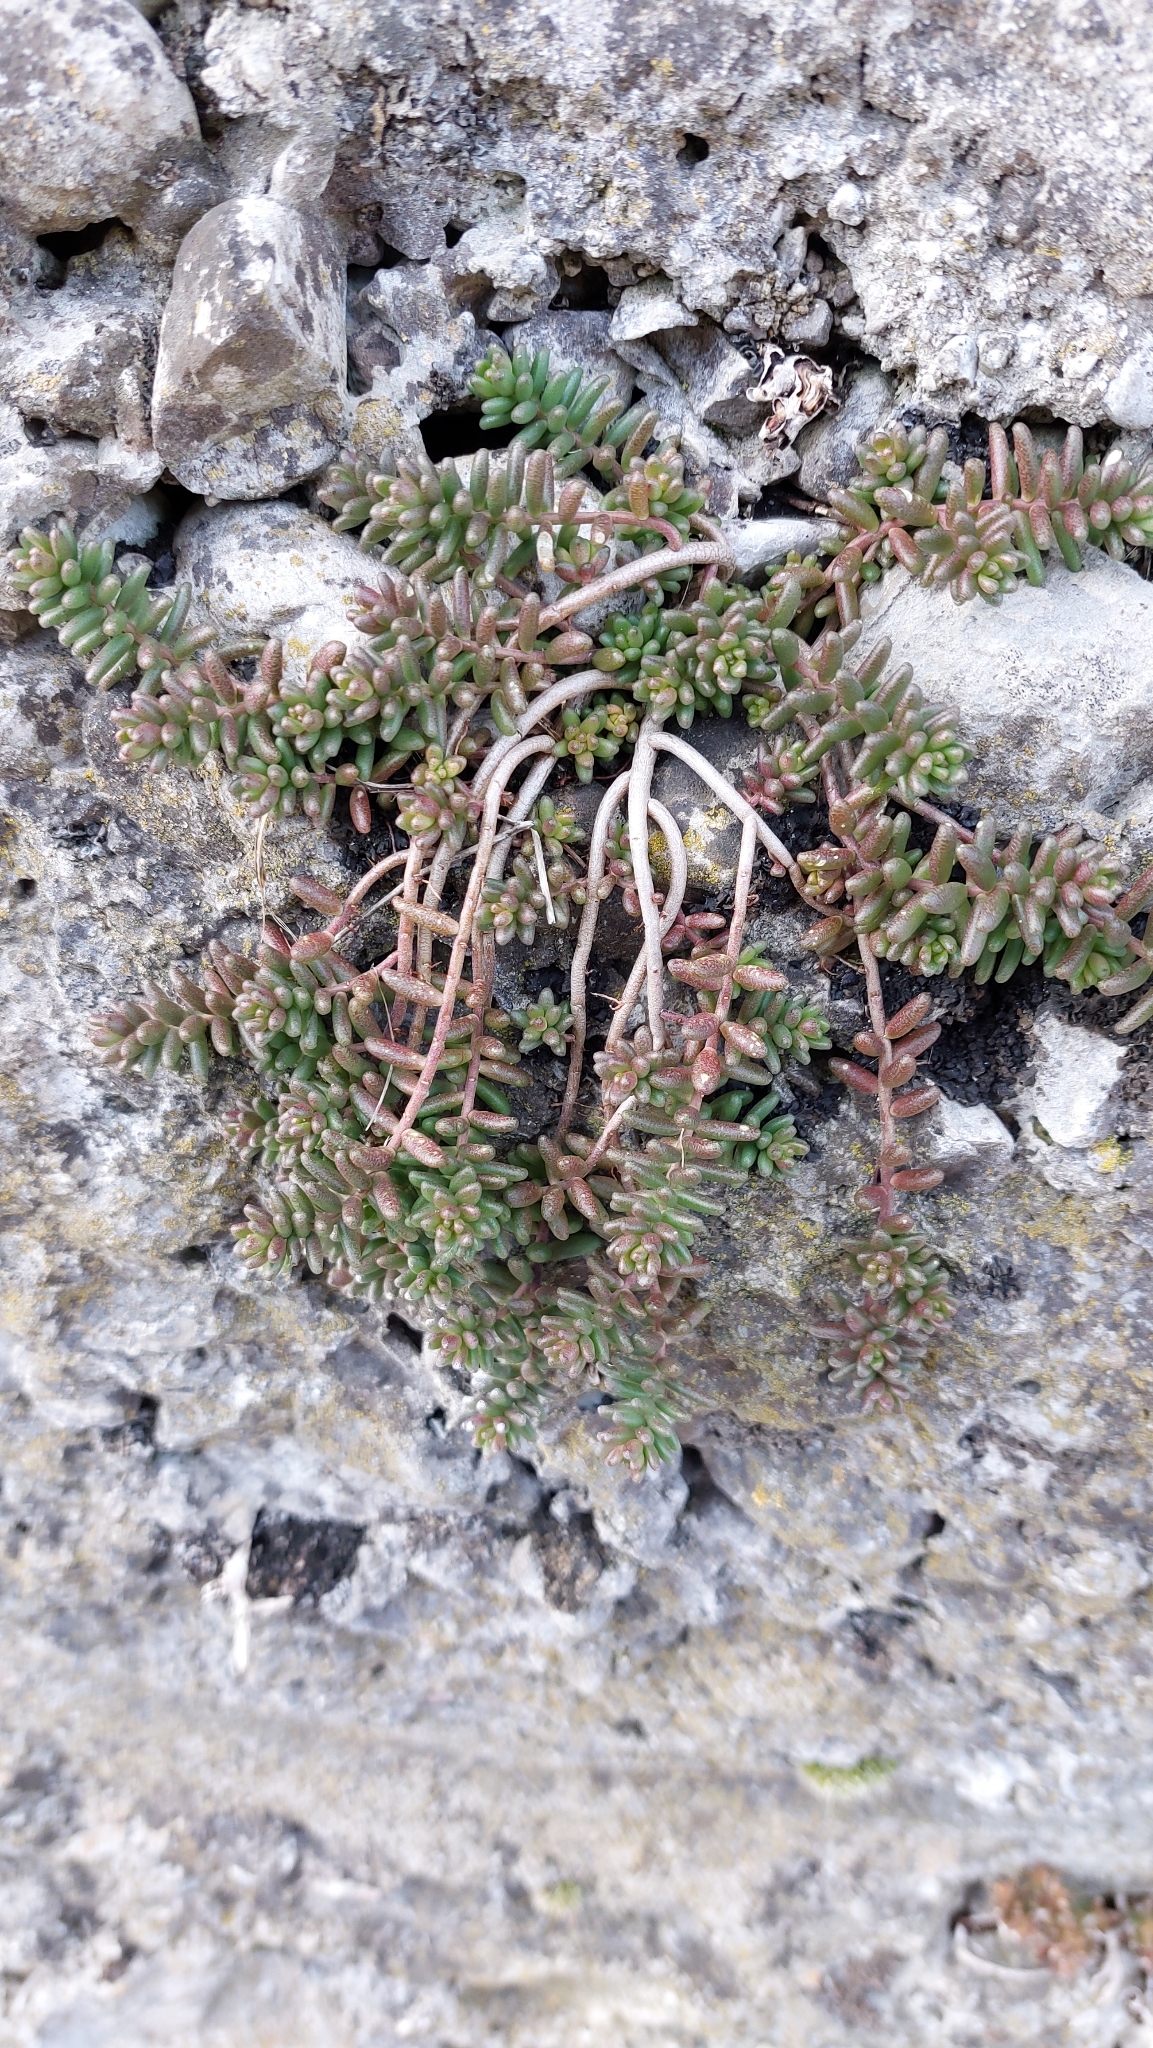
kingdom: Plantae
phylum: Tracheophyta
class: Magnoliopsida
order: Saxifragales
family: Crassulaceae
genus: Sedum
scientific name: Sedum album
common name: White stonecrop
